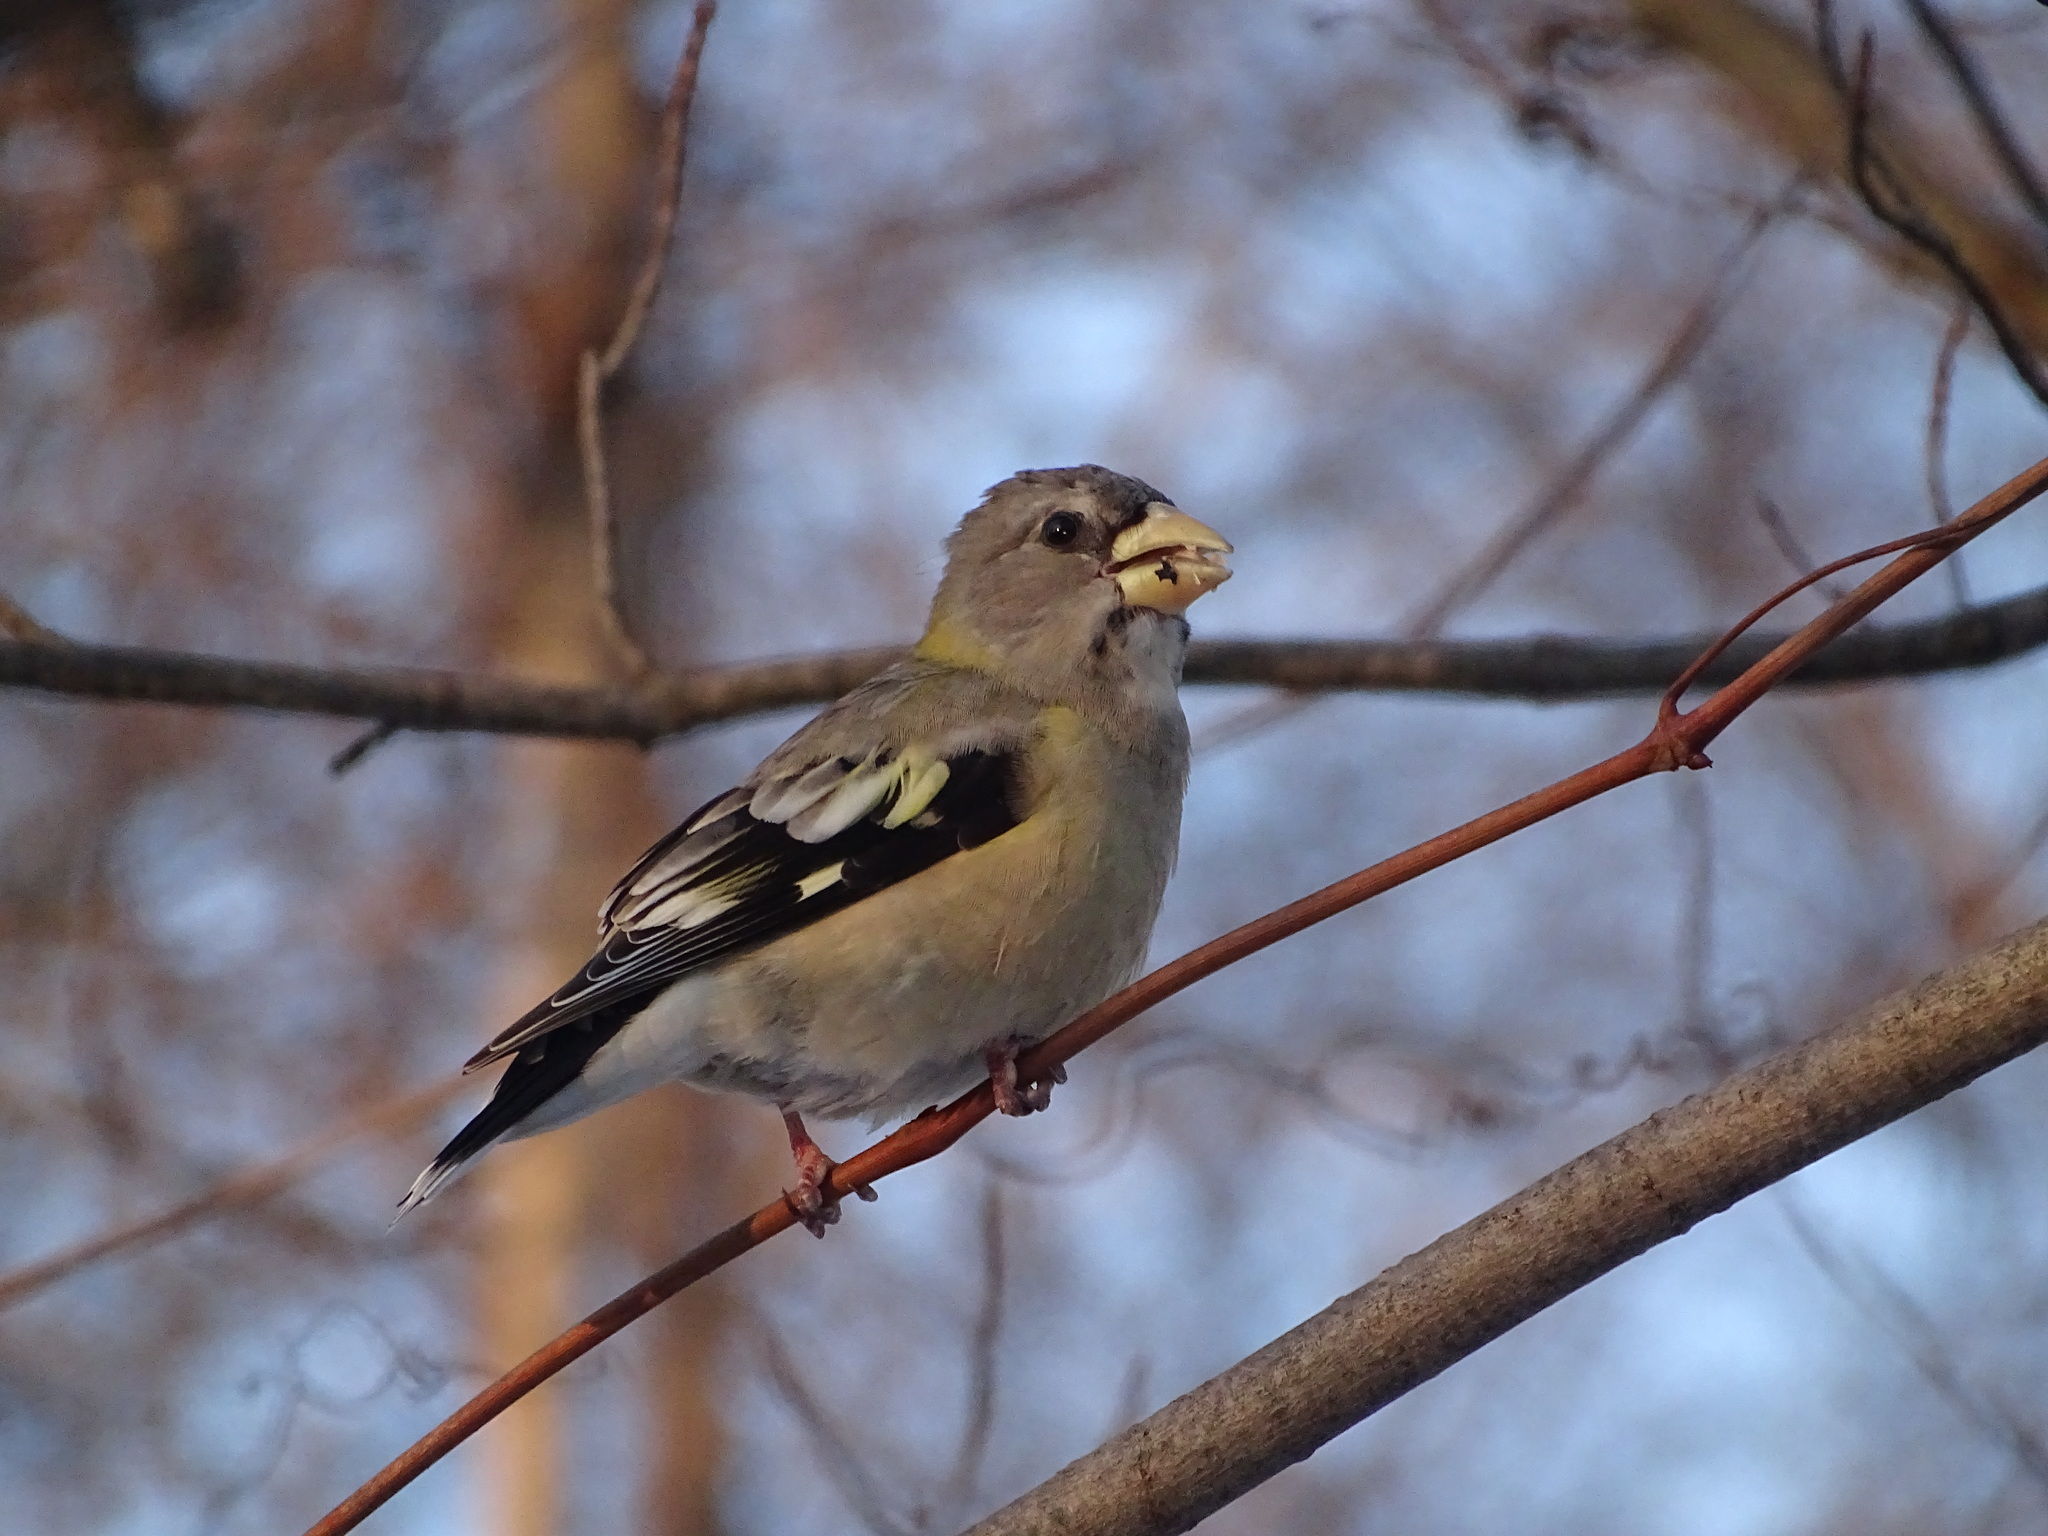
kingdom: Animalia
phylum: Chordata
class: Aves
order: Passeriformes
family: Fringillidae
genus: Hesperiphona
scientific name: Hesperiphona vespertina
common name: Evening grosbeak
